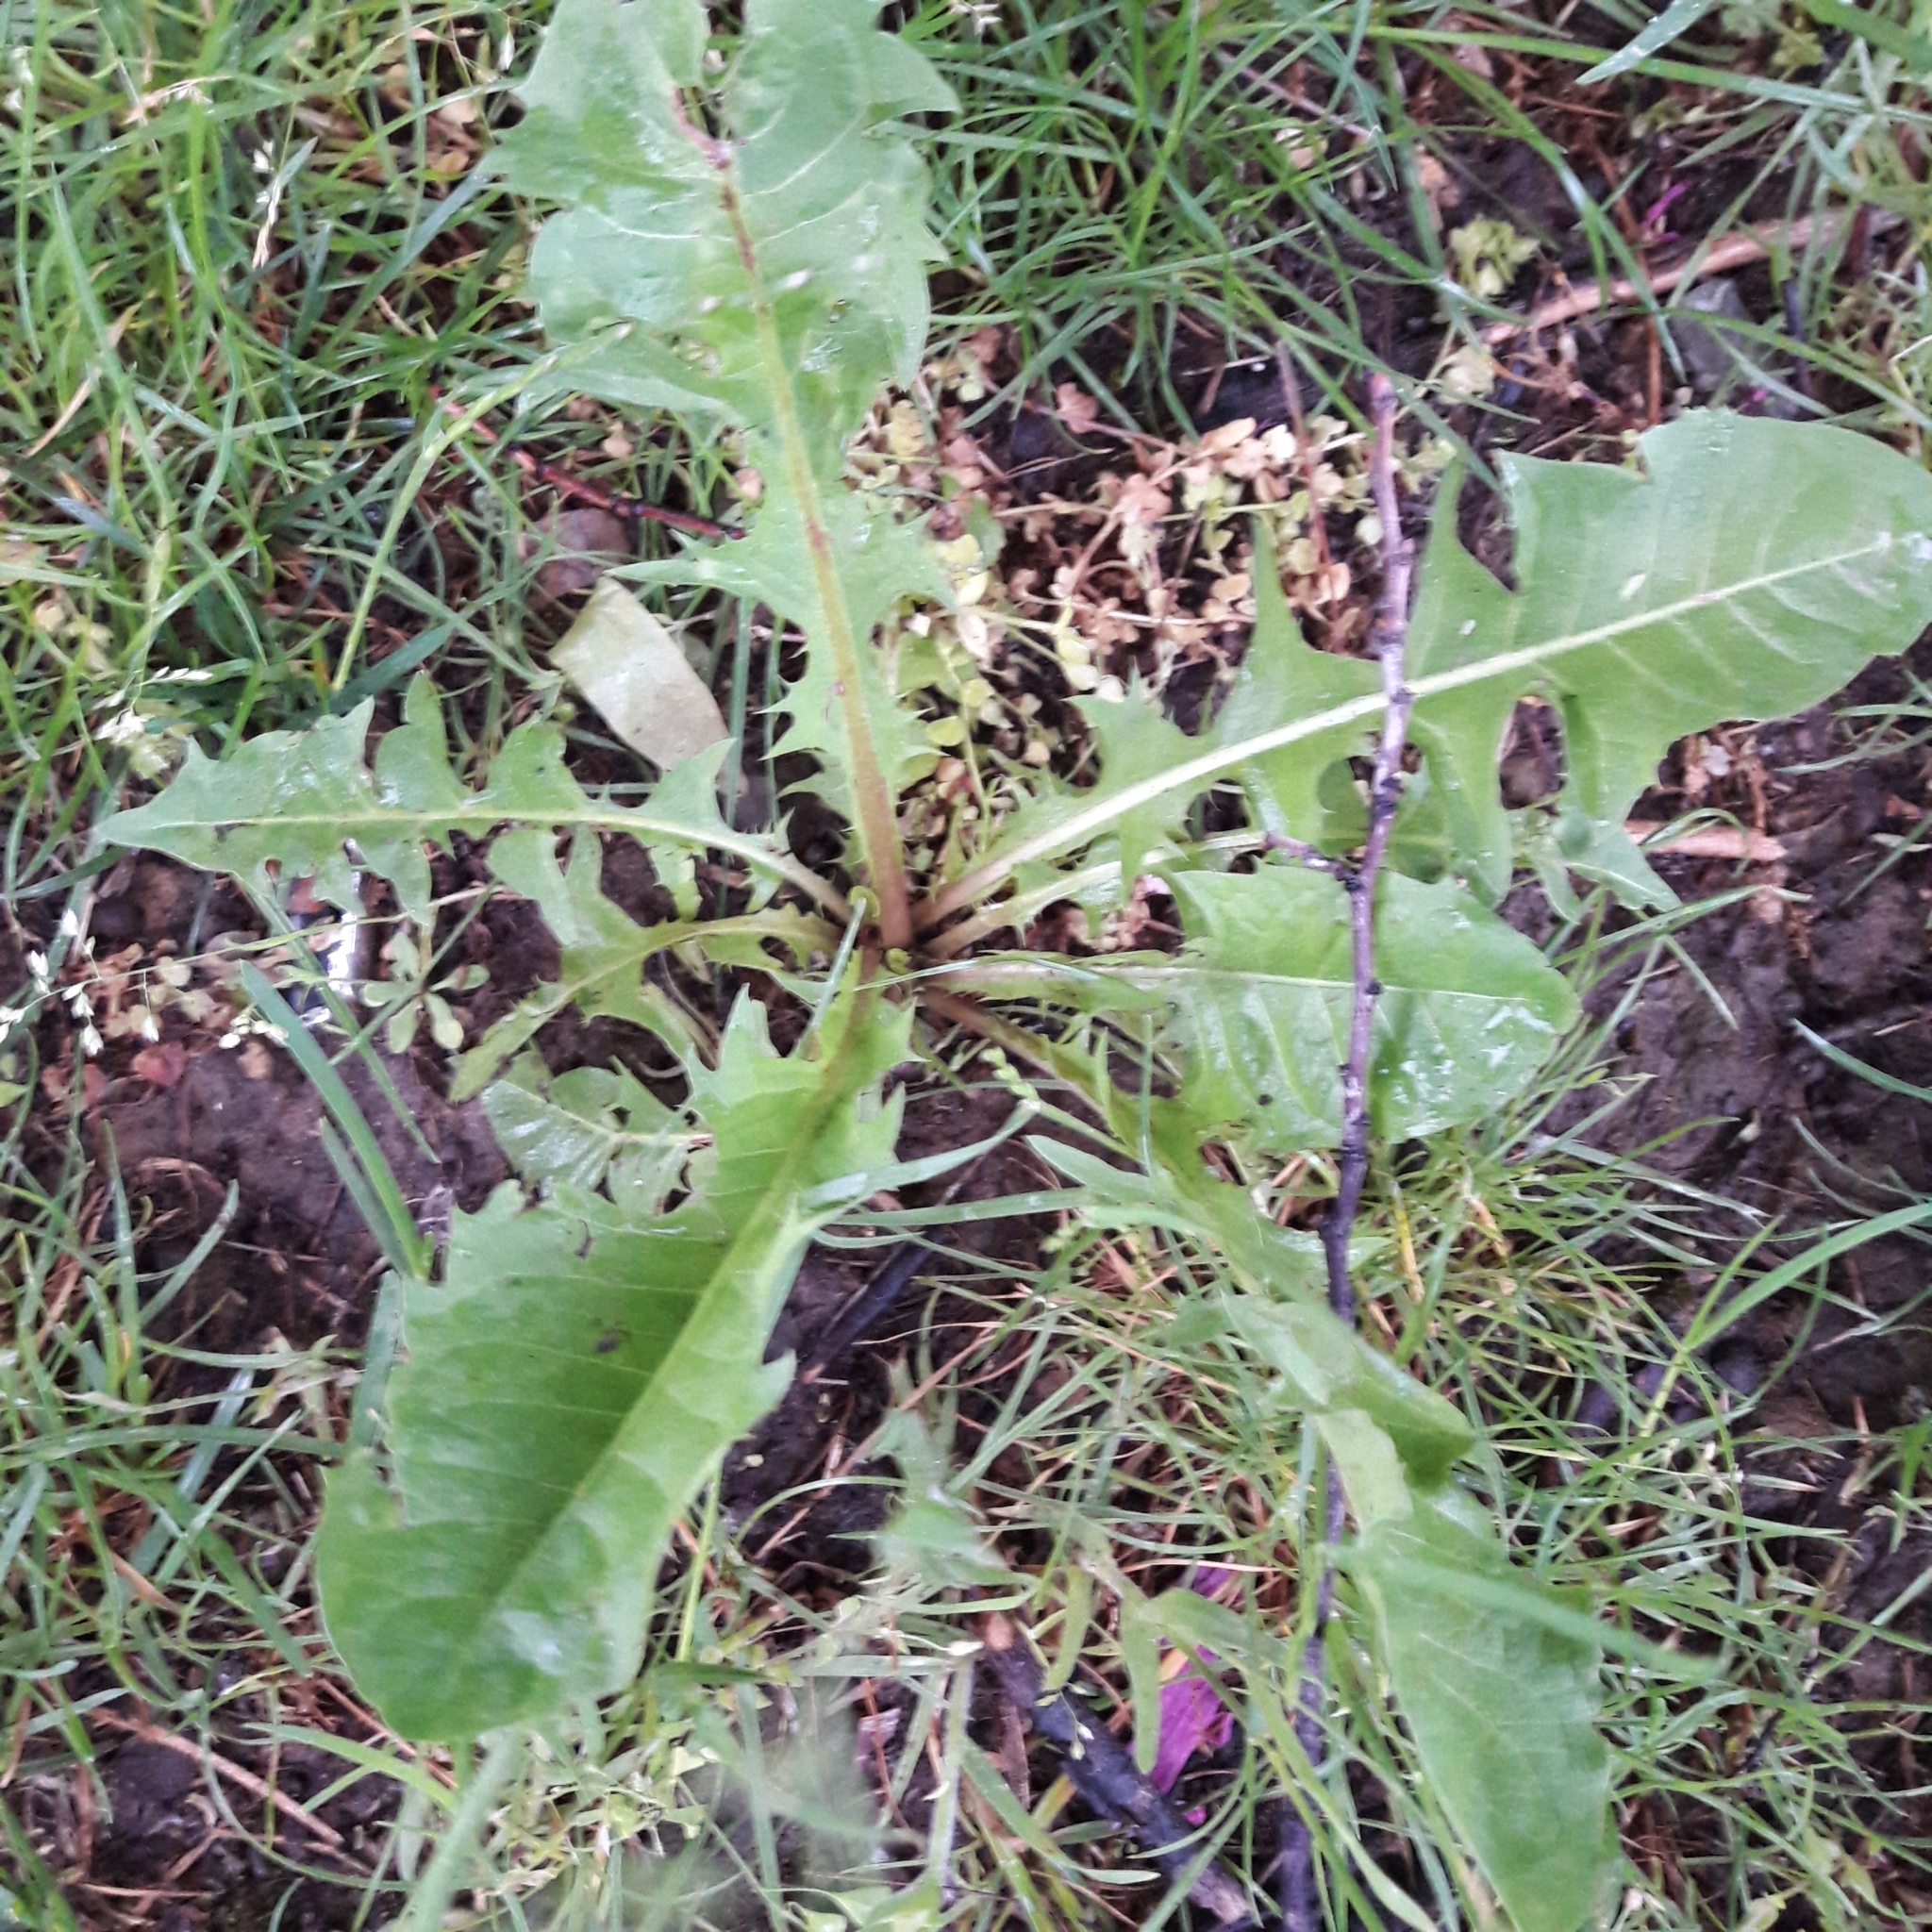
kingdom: Plantae
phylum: Tracheophyta
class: Magnoliopsida
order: Asterales
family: Asteraceae
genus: Taraxacum
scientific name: Taraxacum officinale
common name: Common dandelion
